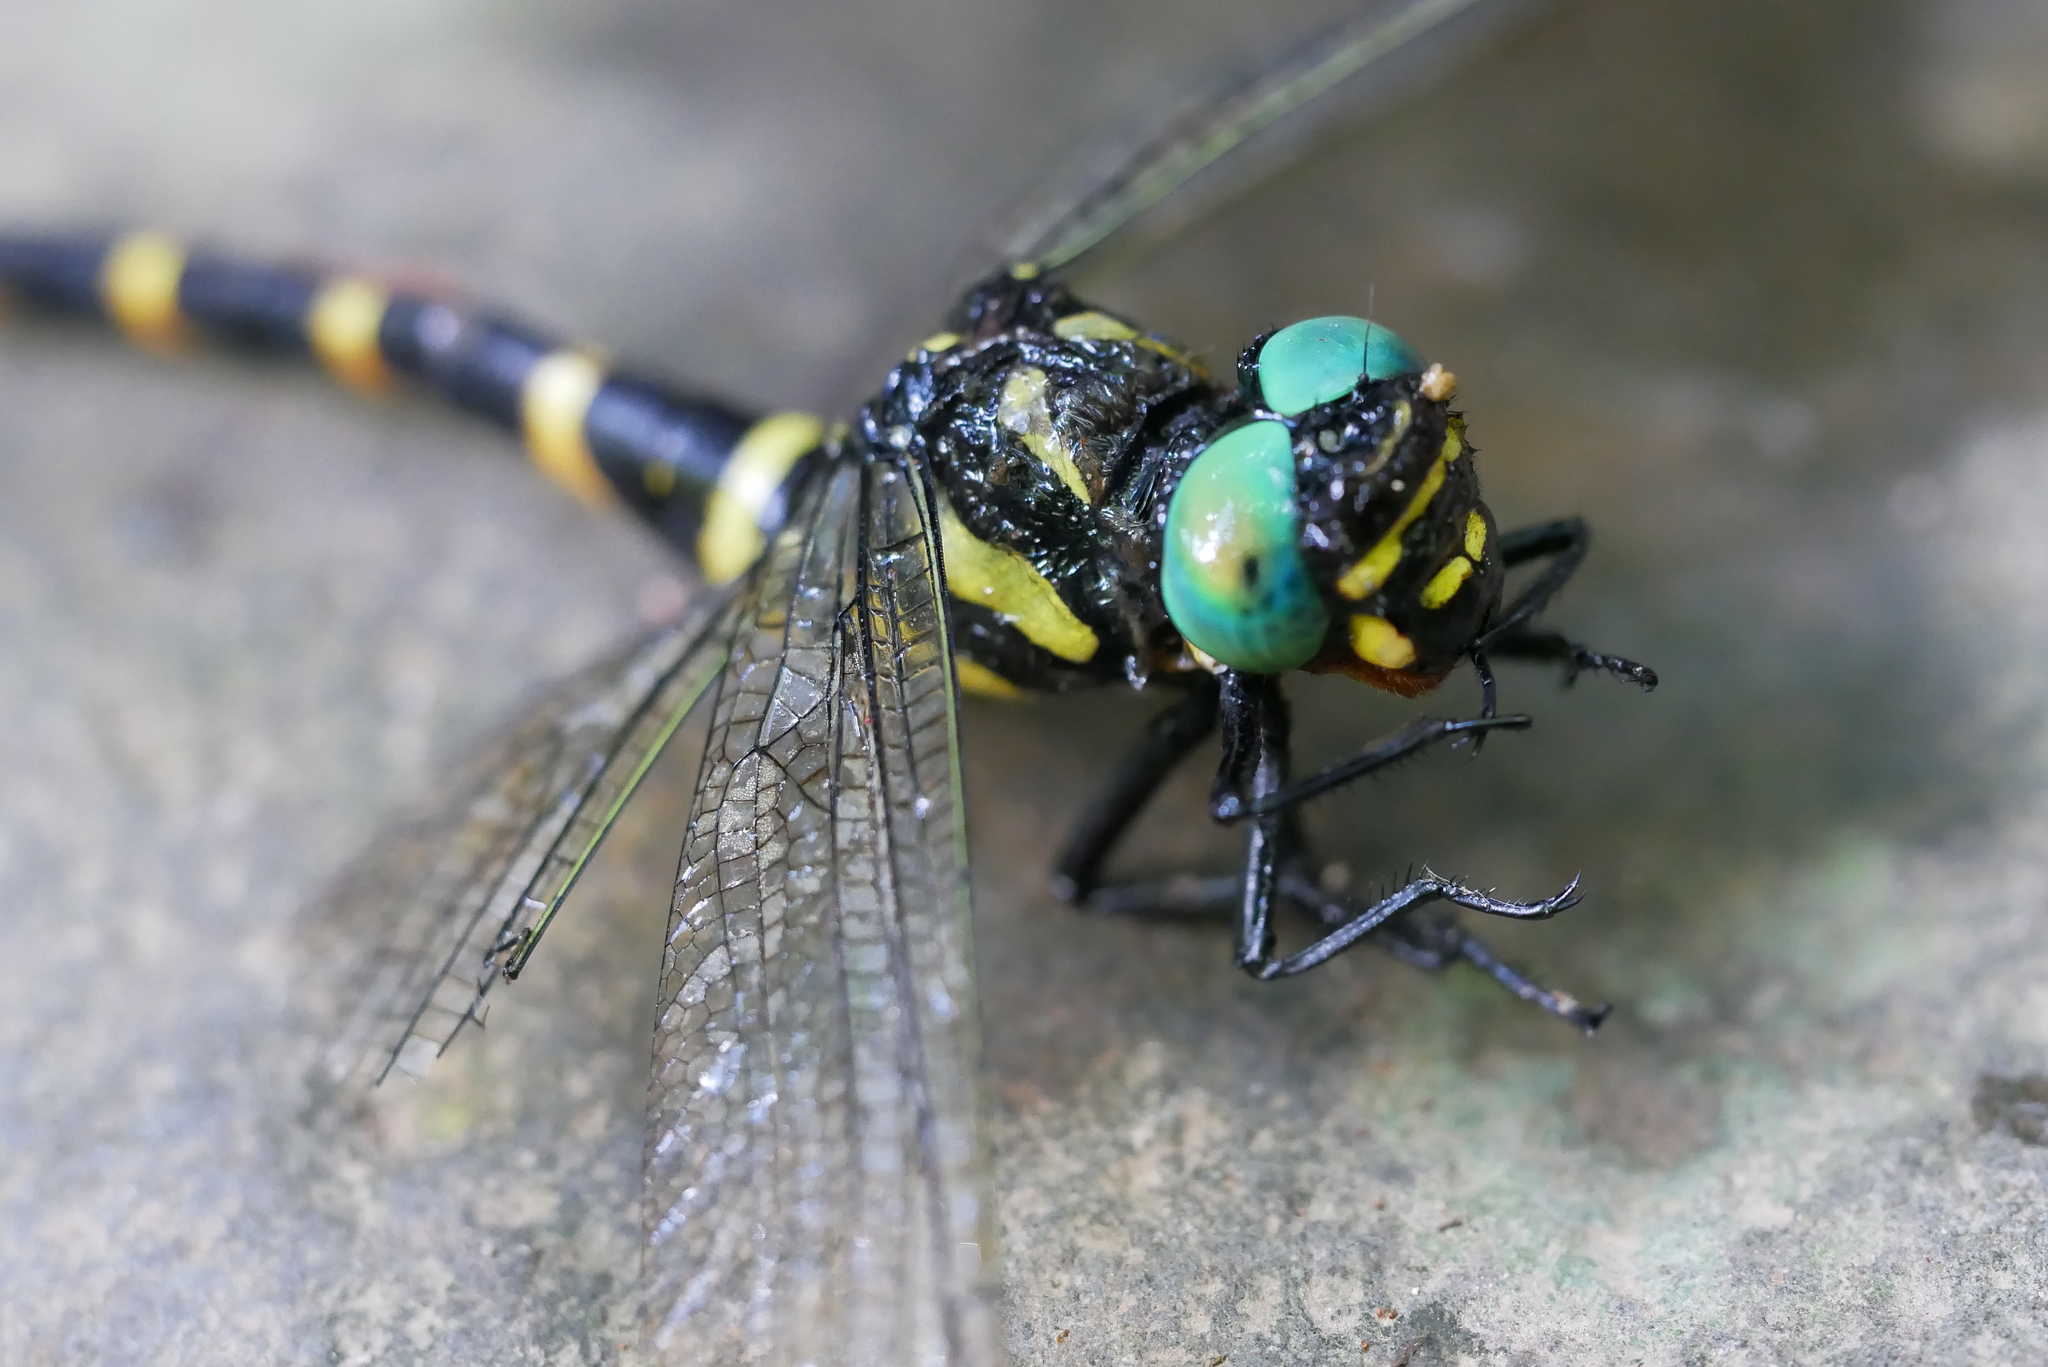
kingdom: Animalia
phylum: Arthropoda
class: Insecta
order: Odonata
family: Cordulegastridae
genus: Anotogaster
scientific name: Anotogaster klossi
